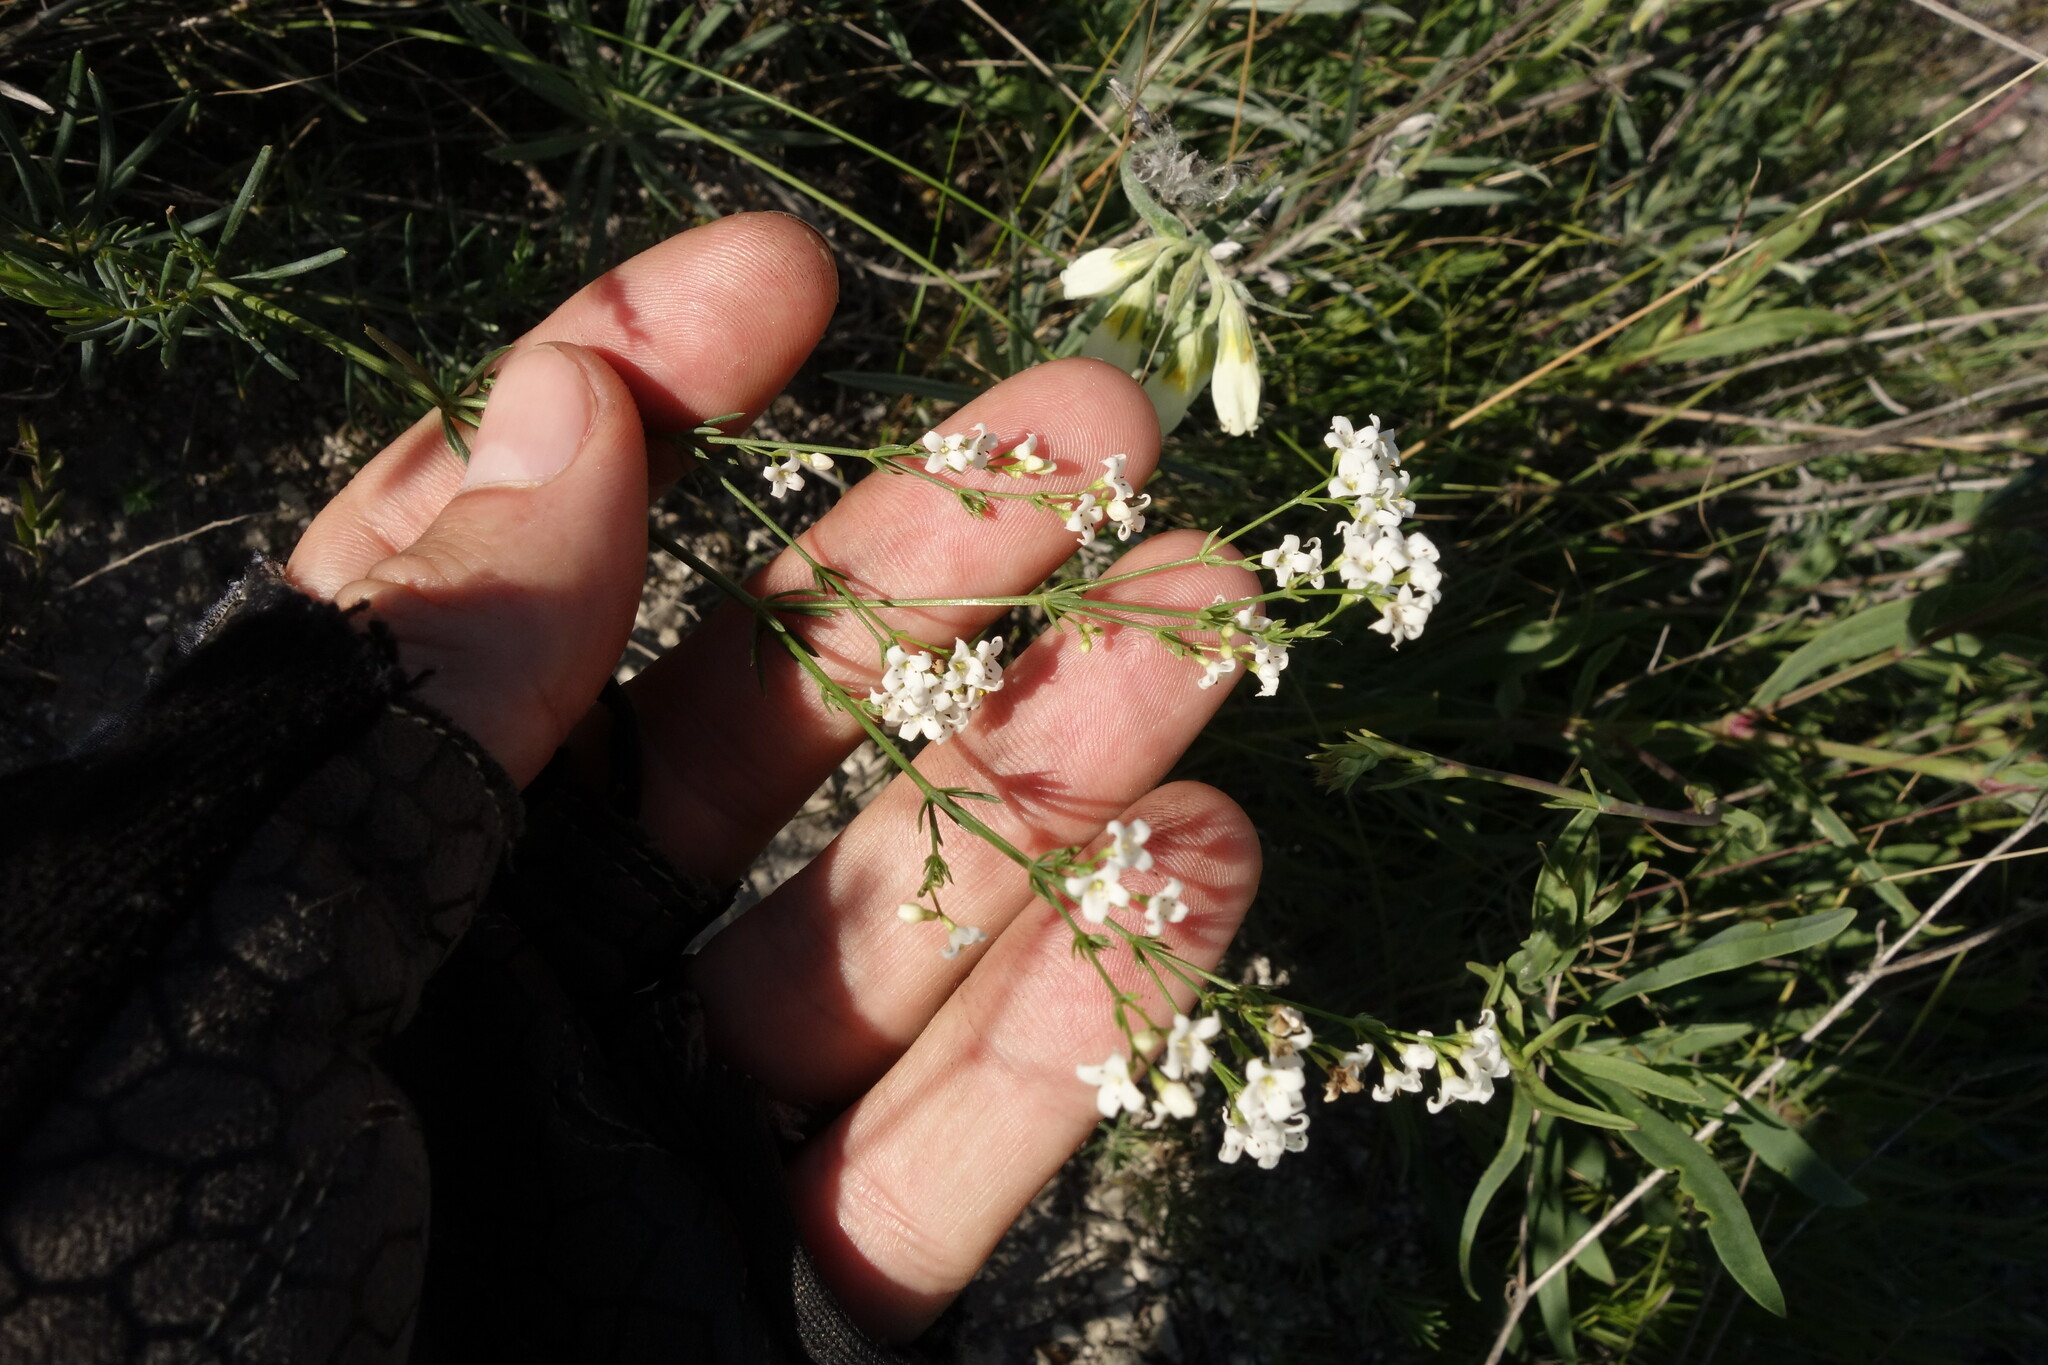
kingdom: Plantae
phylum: Tracheophyta
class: Magnoliopsida
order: Gentianales
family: Rubiaceae
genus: Galium
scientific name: Galium octonarium
